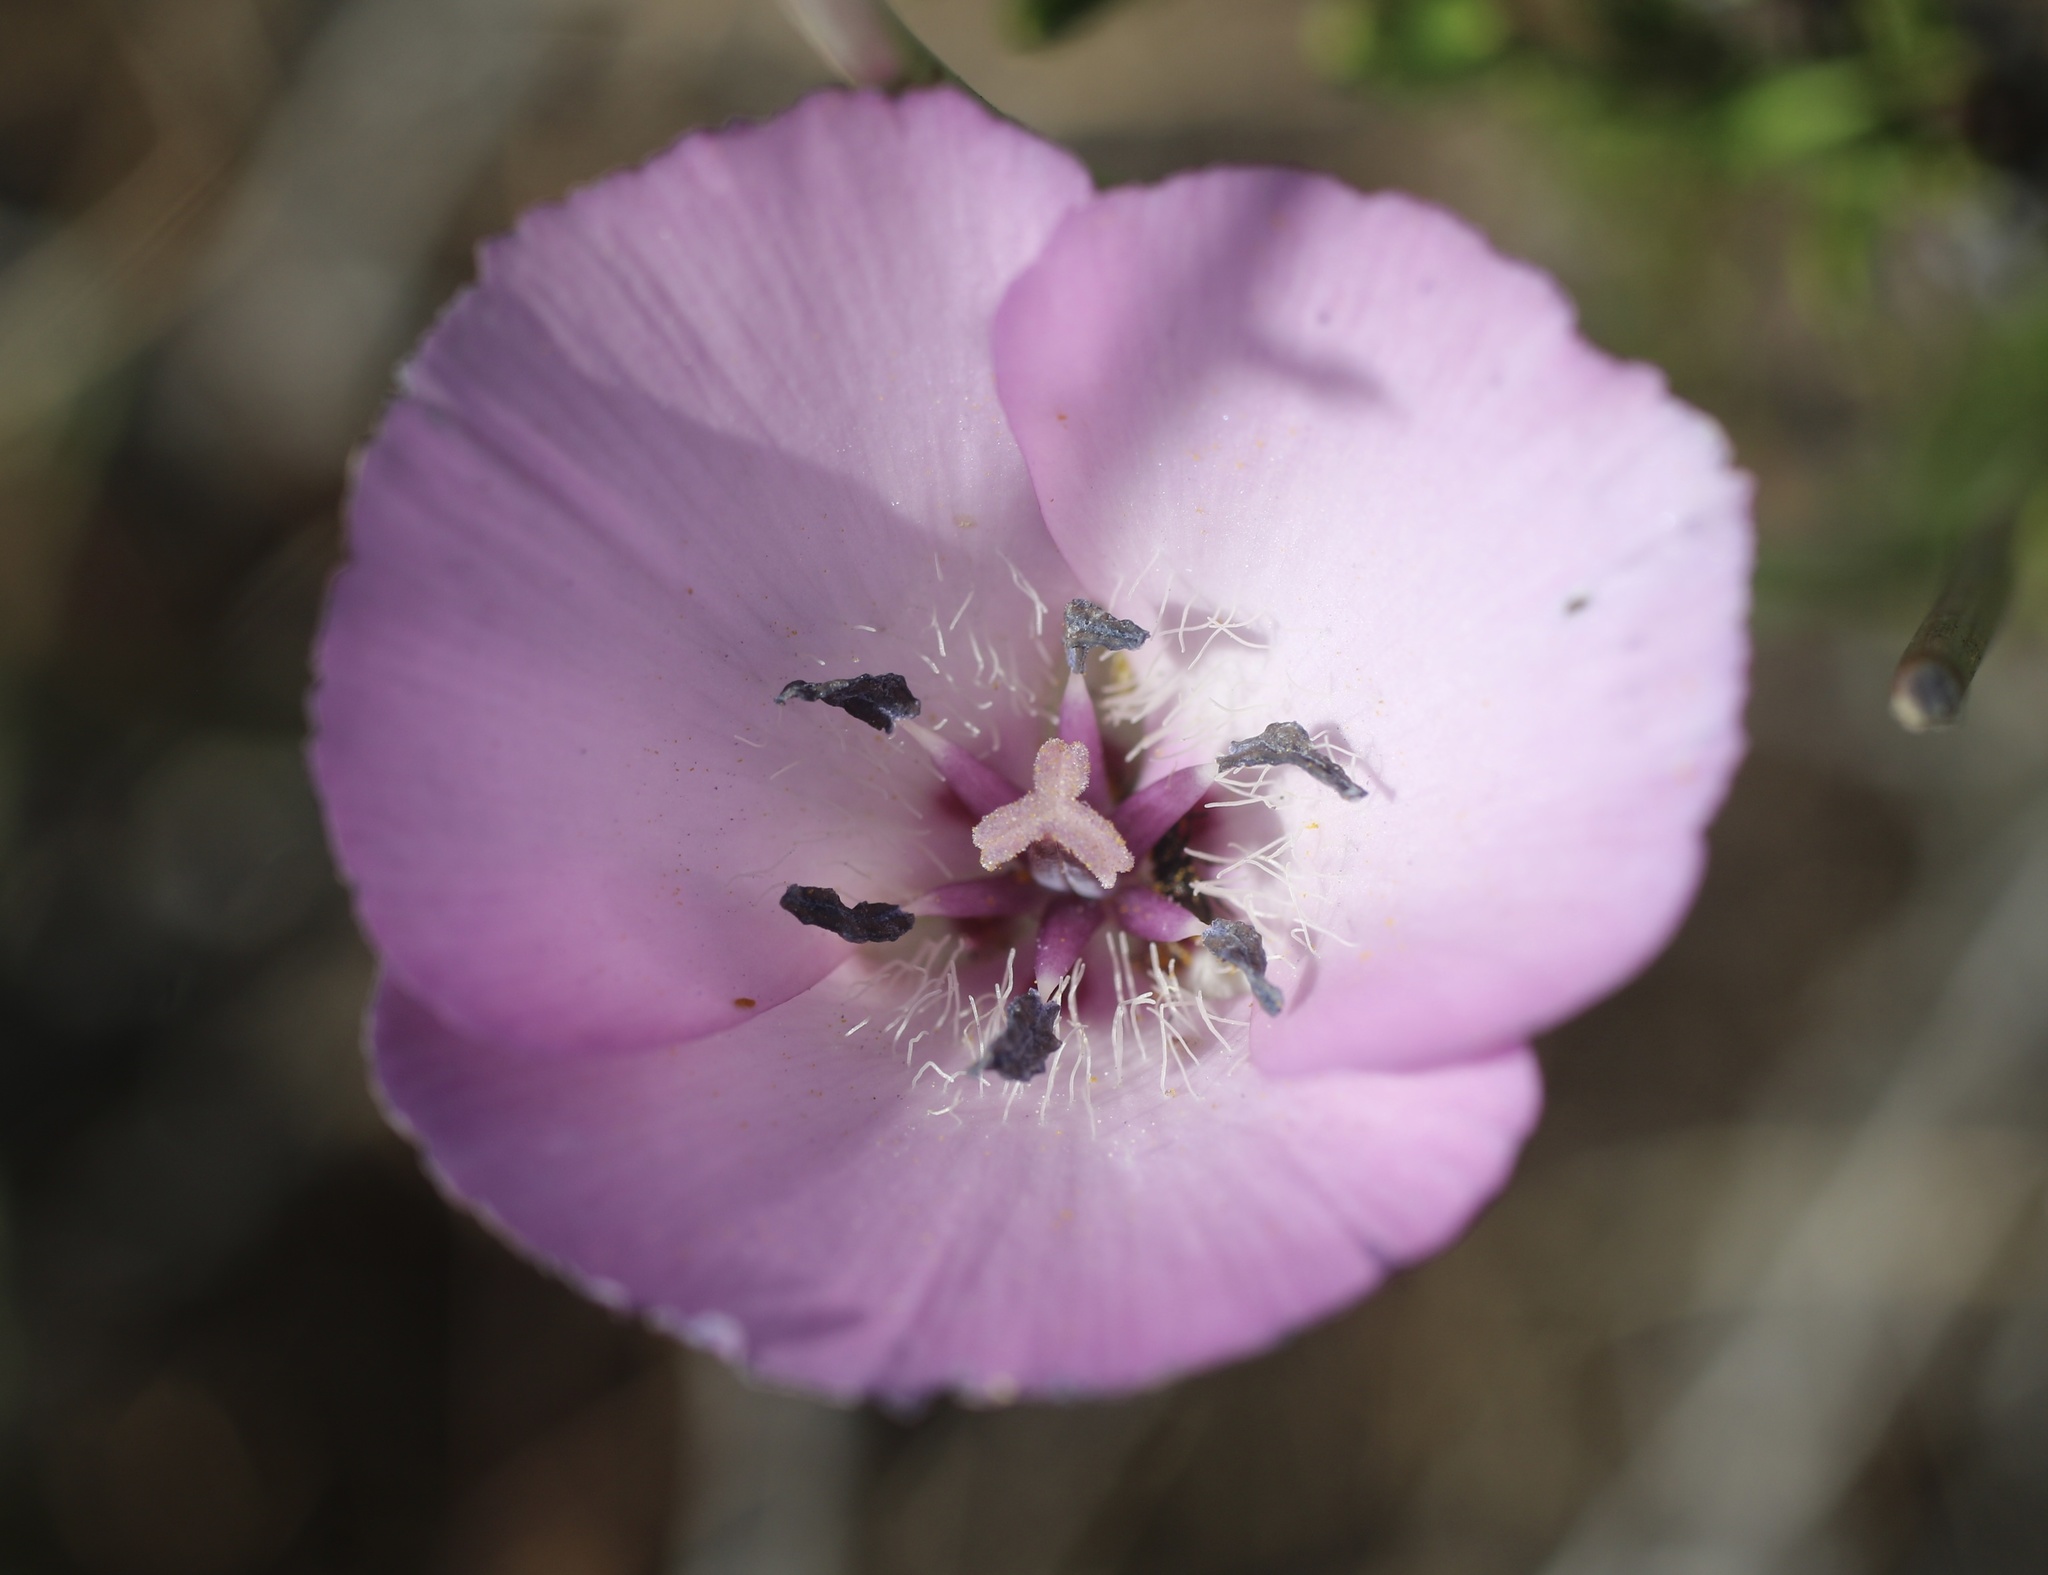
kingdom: Plantae
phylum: Tracheophyta
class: Liliopsida
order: Liliales
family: Liliaceae
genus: Calochortus
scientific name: Calochortus splendens
